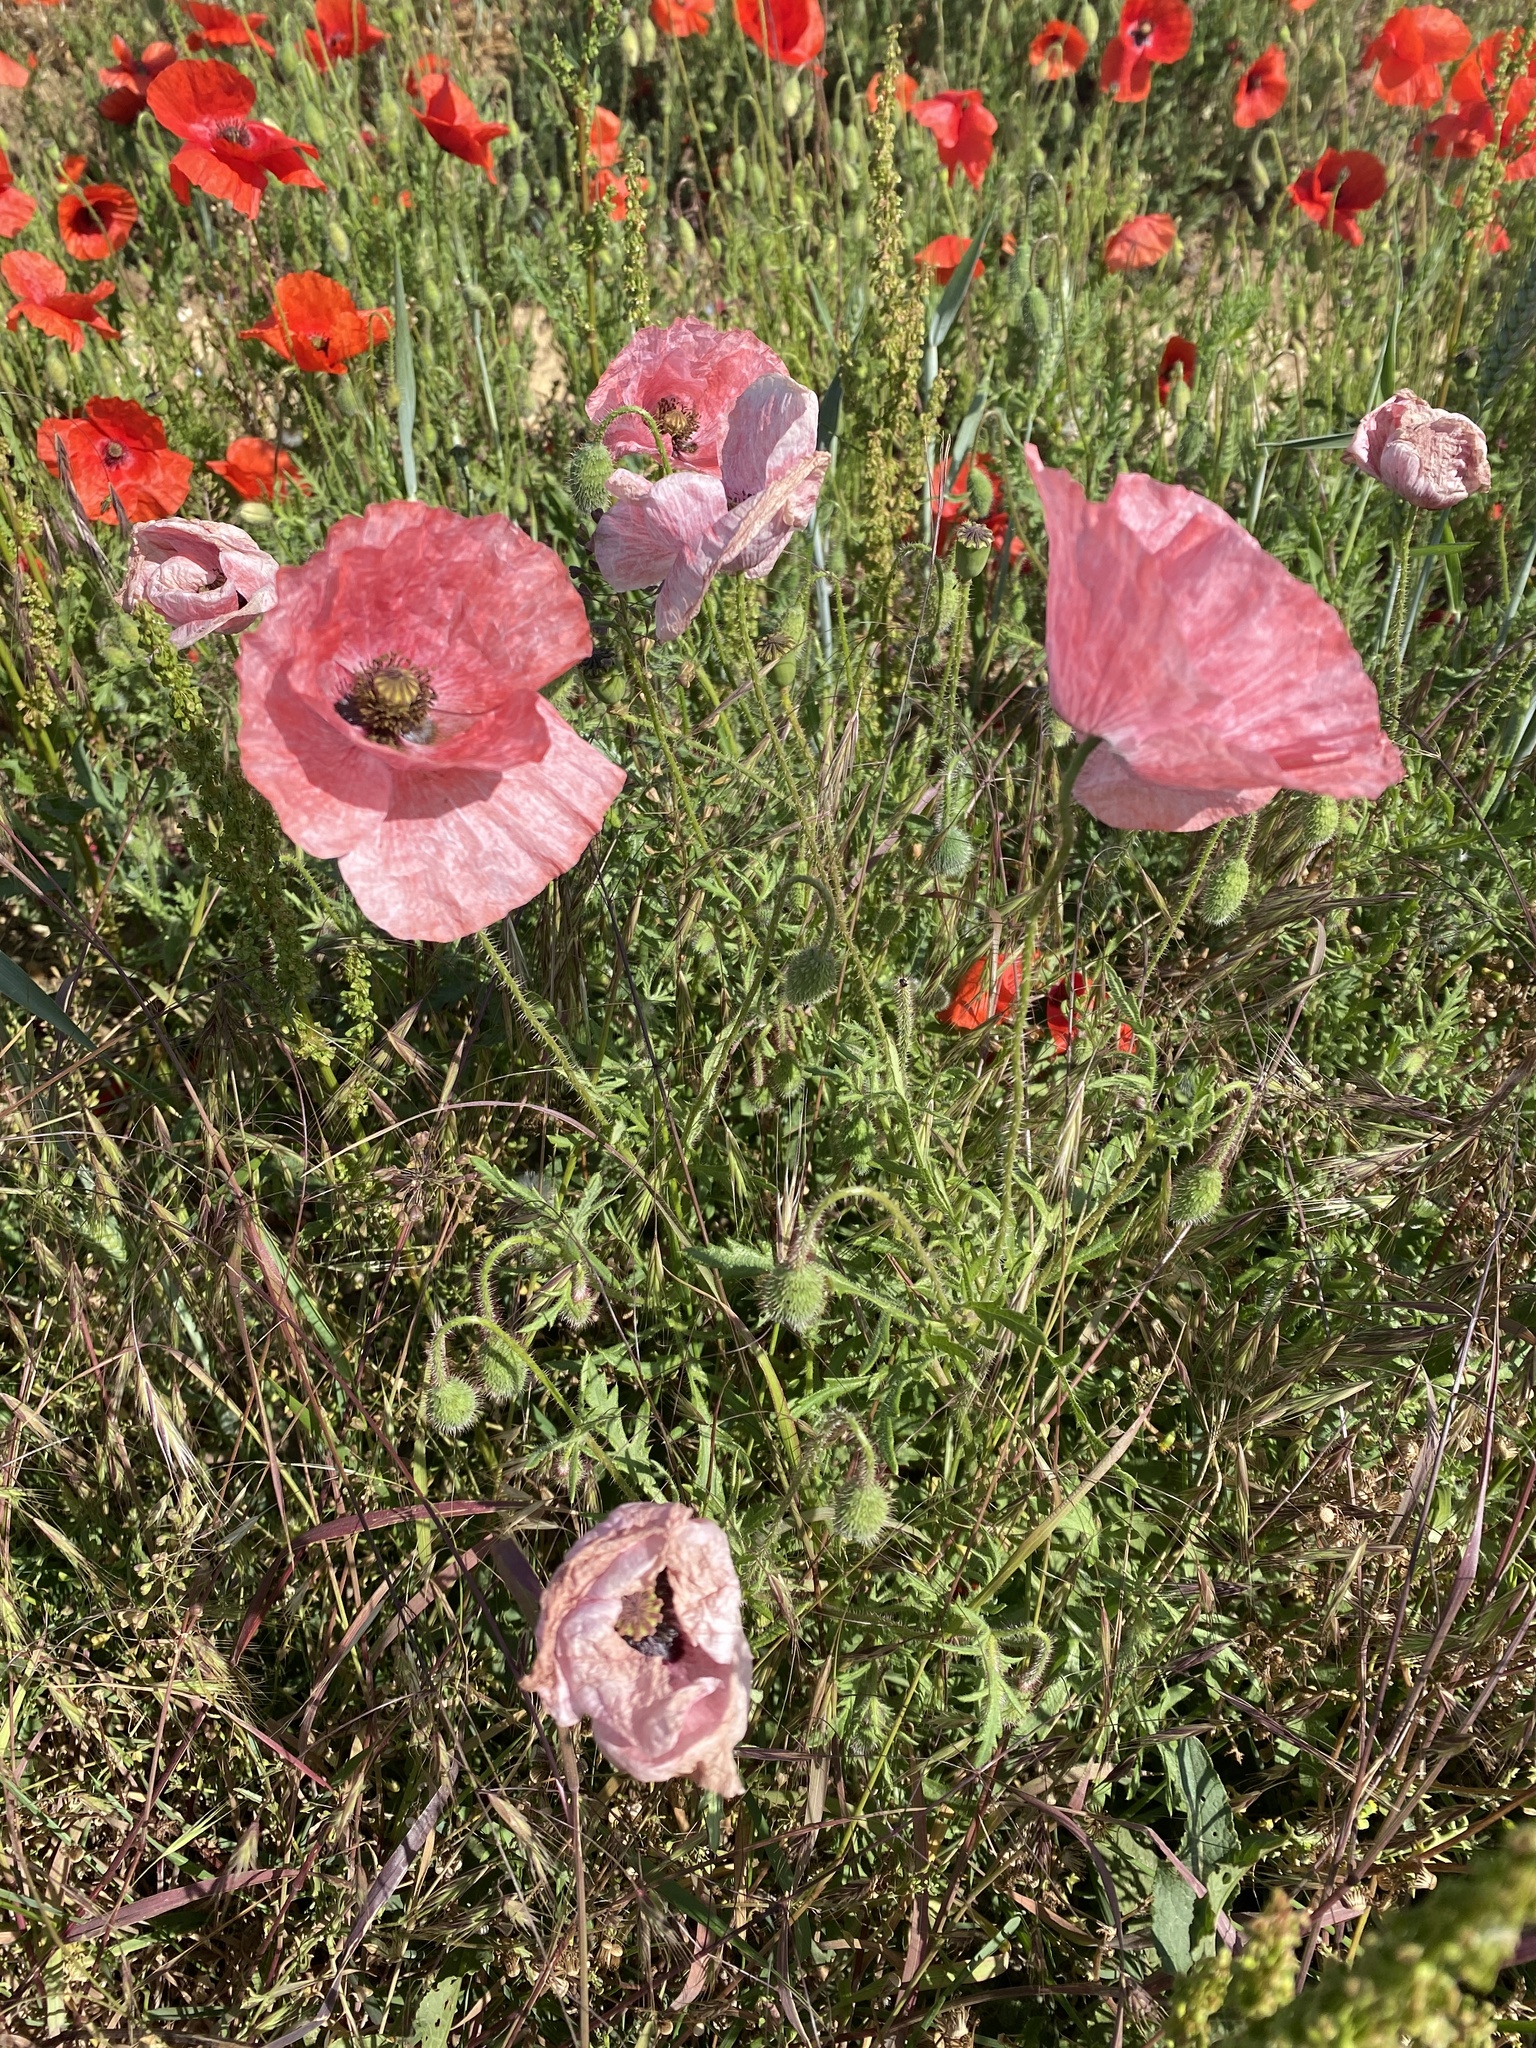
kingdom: Plantae
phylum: Tracheophyta
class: Magnoliopsida
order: Ranunculales
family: Papaveraceae
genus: Papaver
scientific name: Papaver rhoeas
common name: Corn poppy
